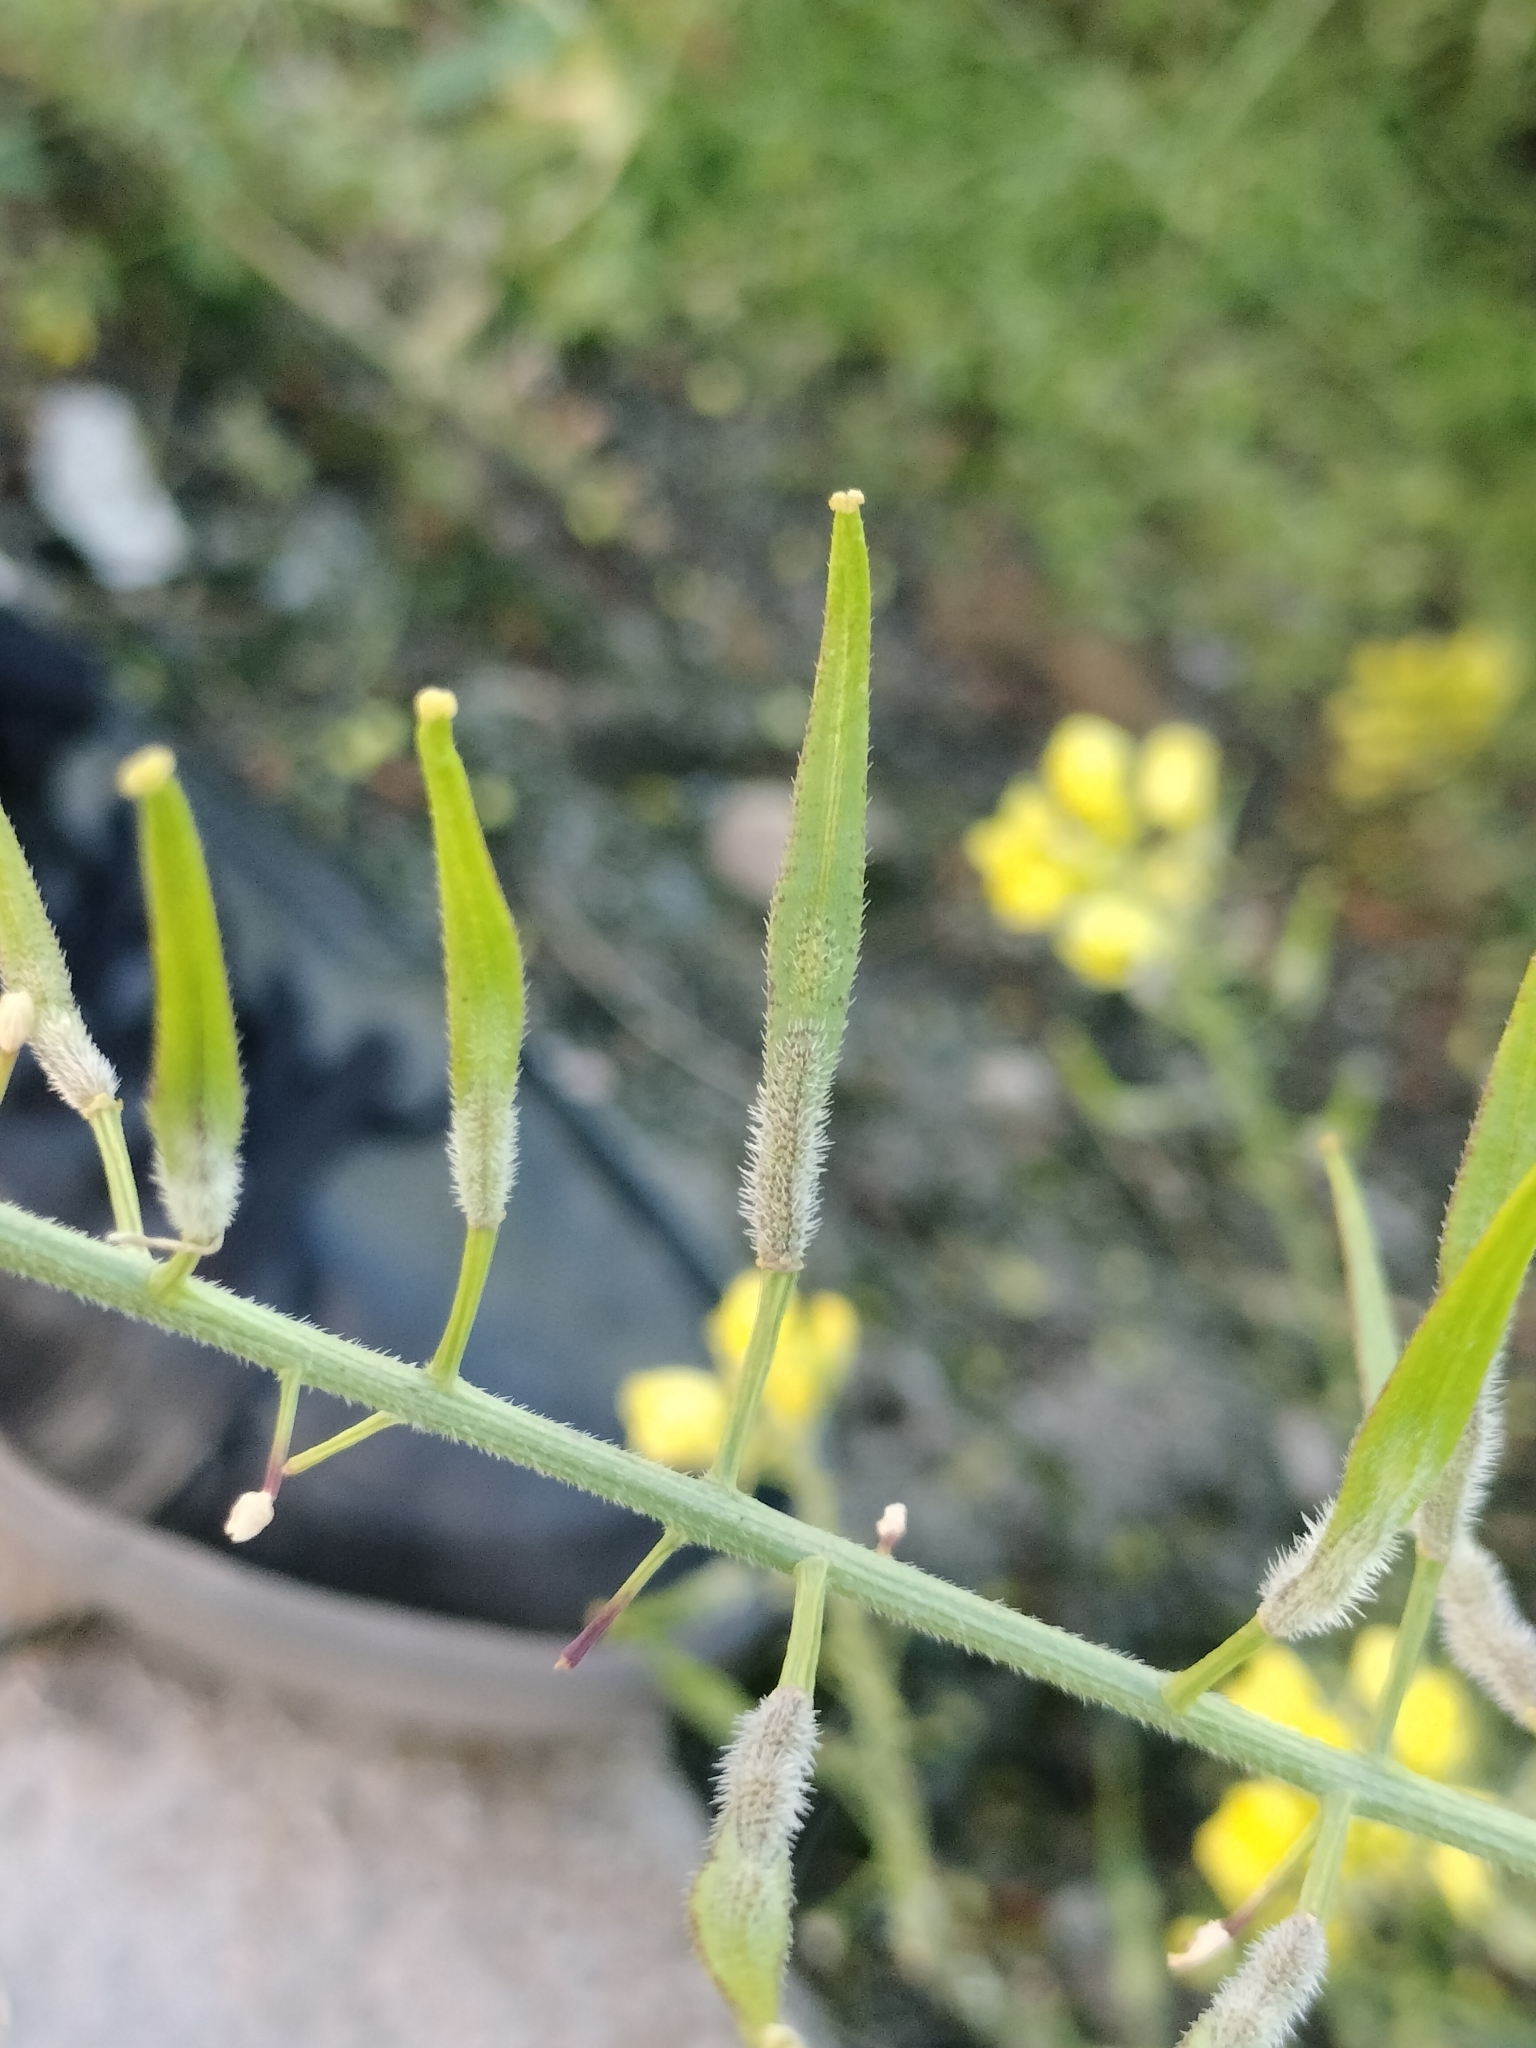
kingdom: Plantae
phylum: Tracheophyta
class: Magnoliopsida
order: Brassicales
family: Brassicaceae
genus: Sinapis
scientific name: Sinapis alba
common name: White mustard
